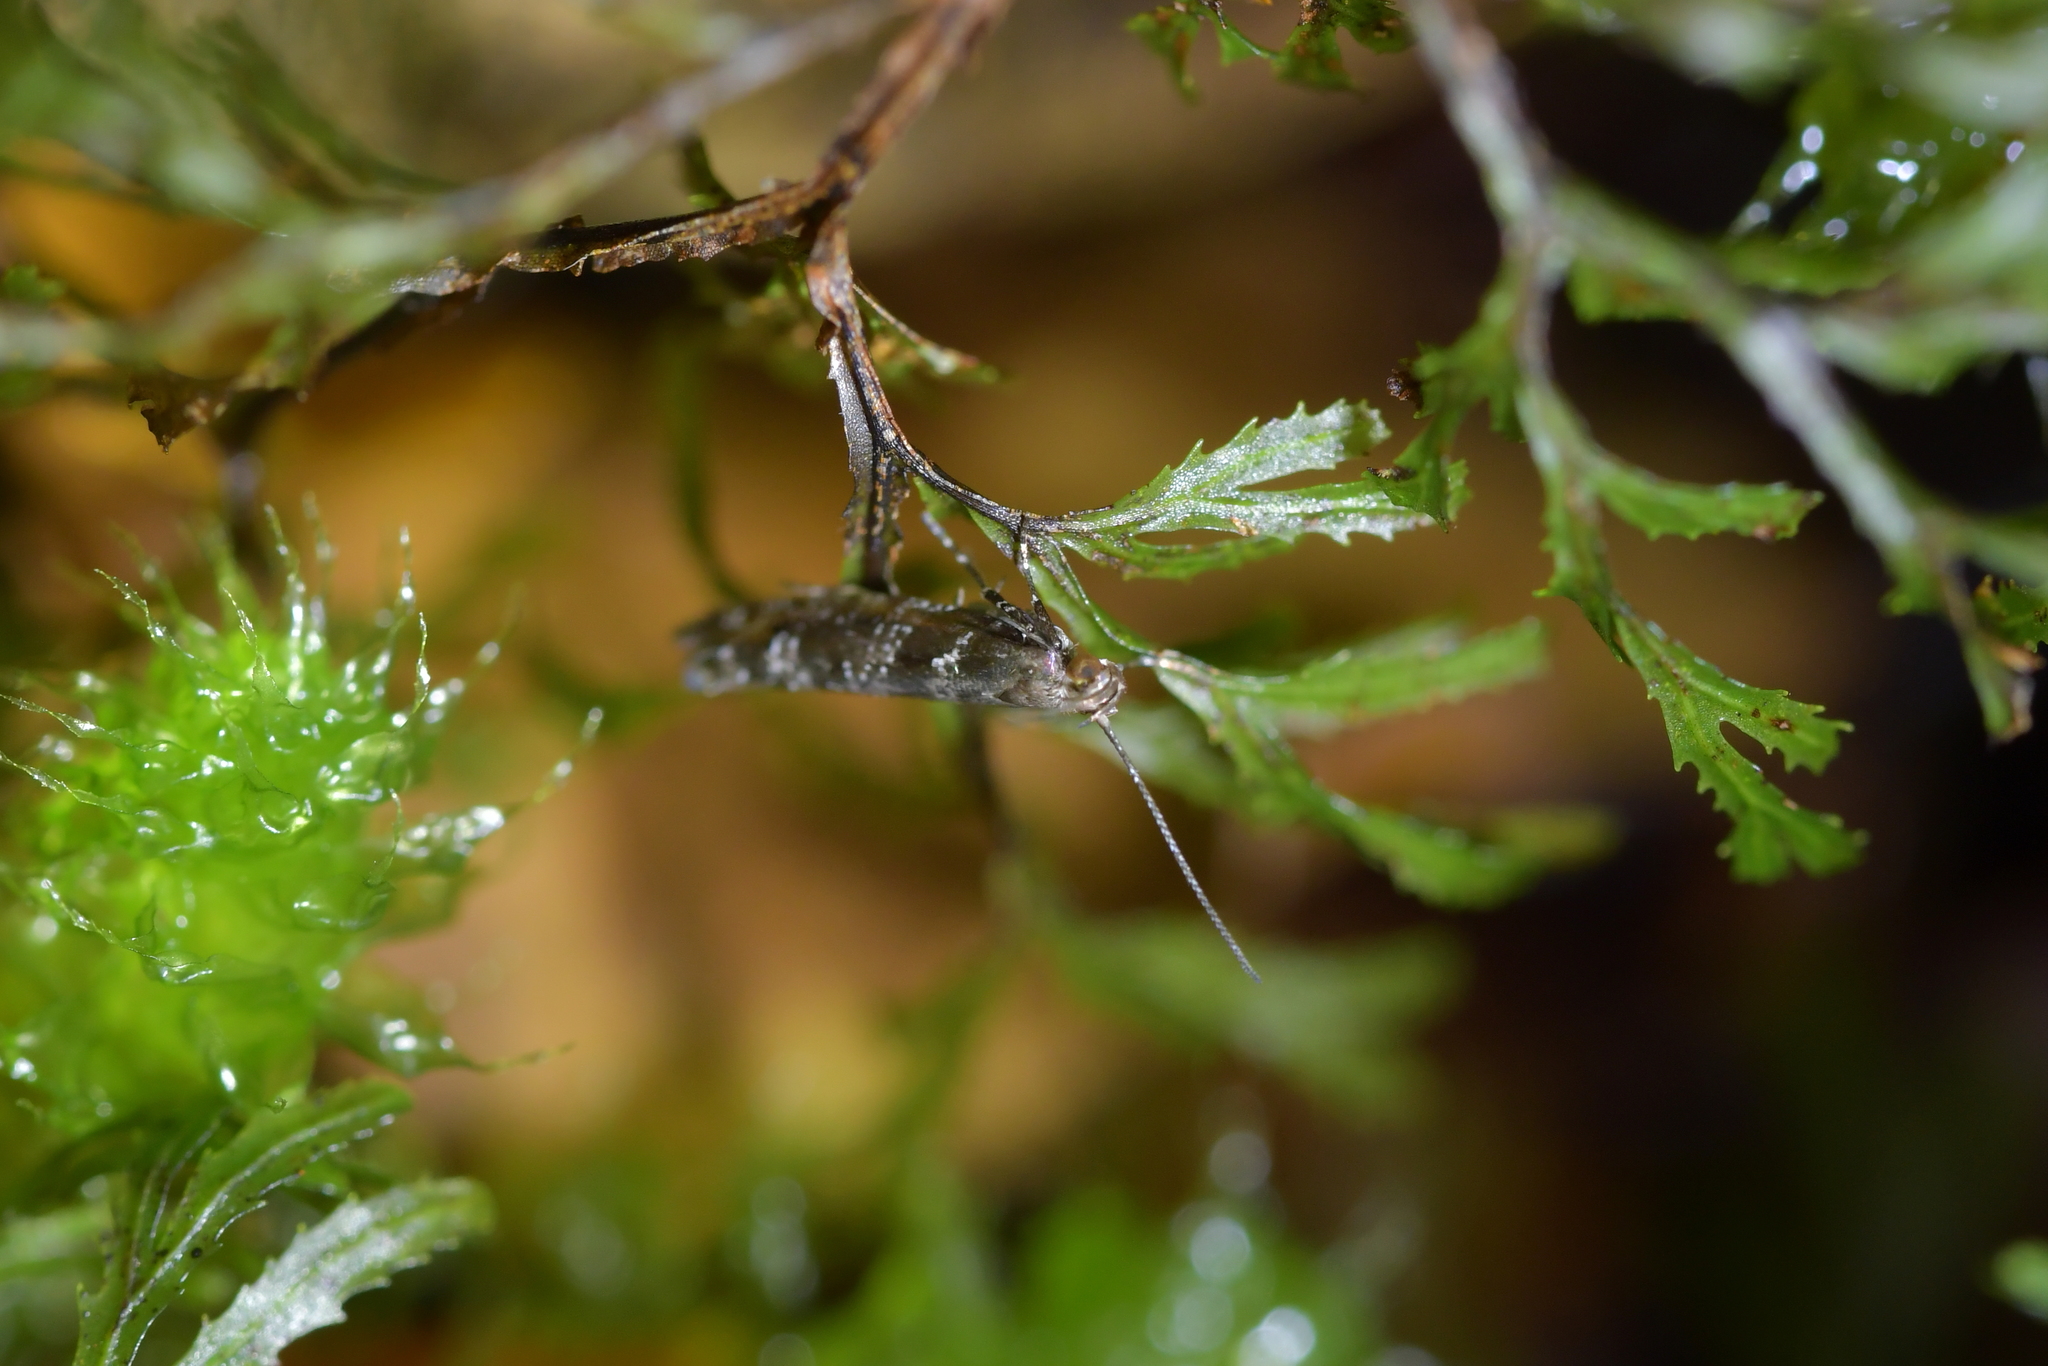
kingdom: Animalia
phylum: Arthropoda
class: Insecta
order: Lepidoptera
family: Glyphipterigidae
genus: Chrysorthenches
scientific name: Chrysorthenches drosochalca
